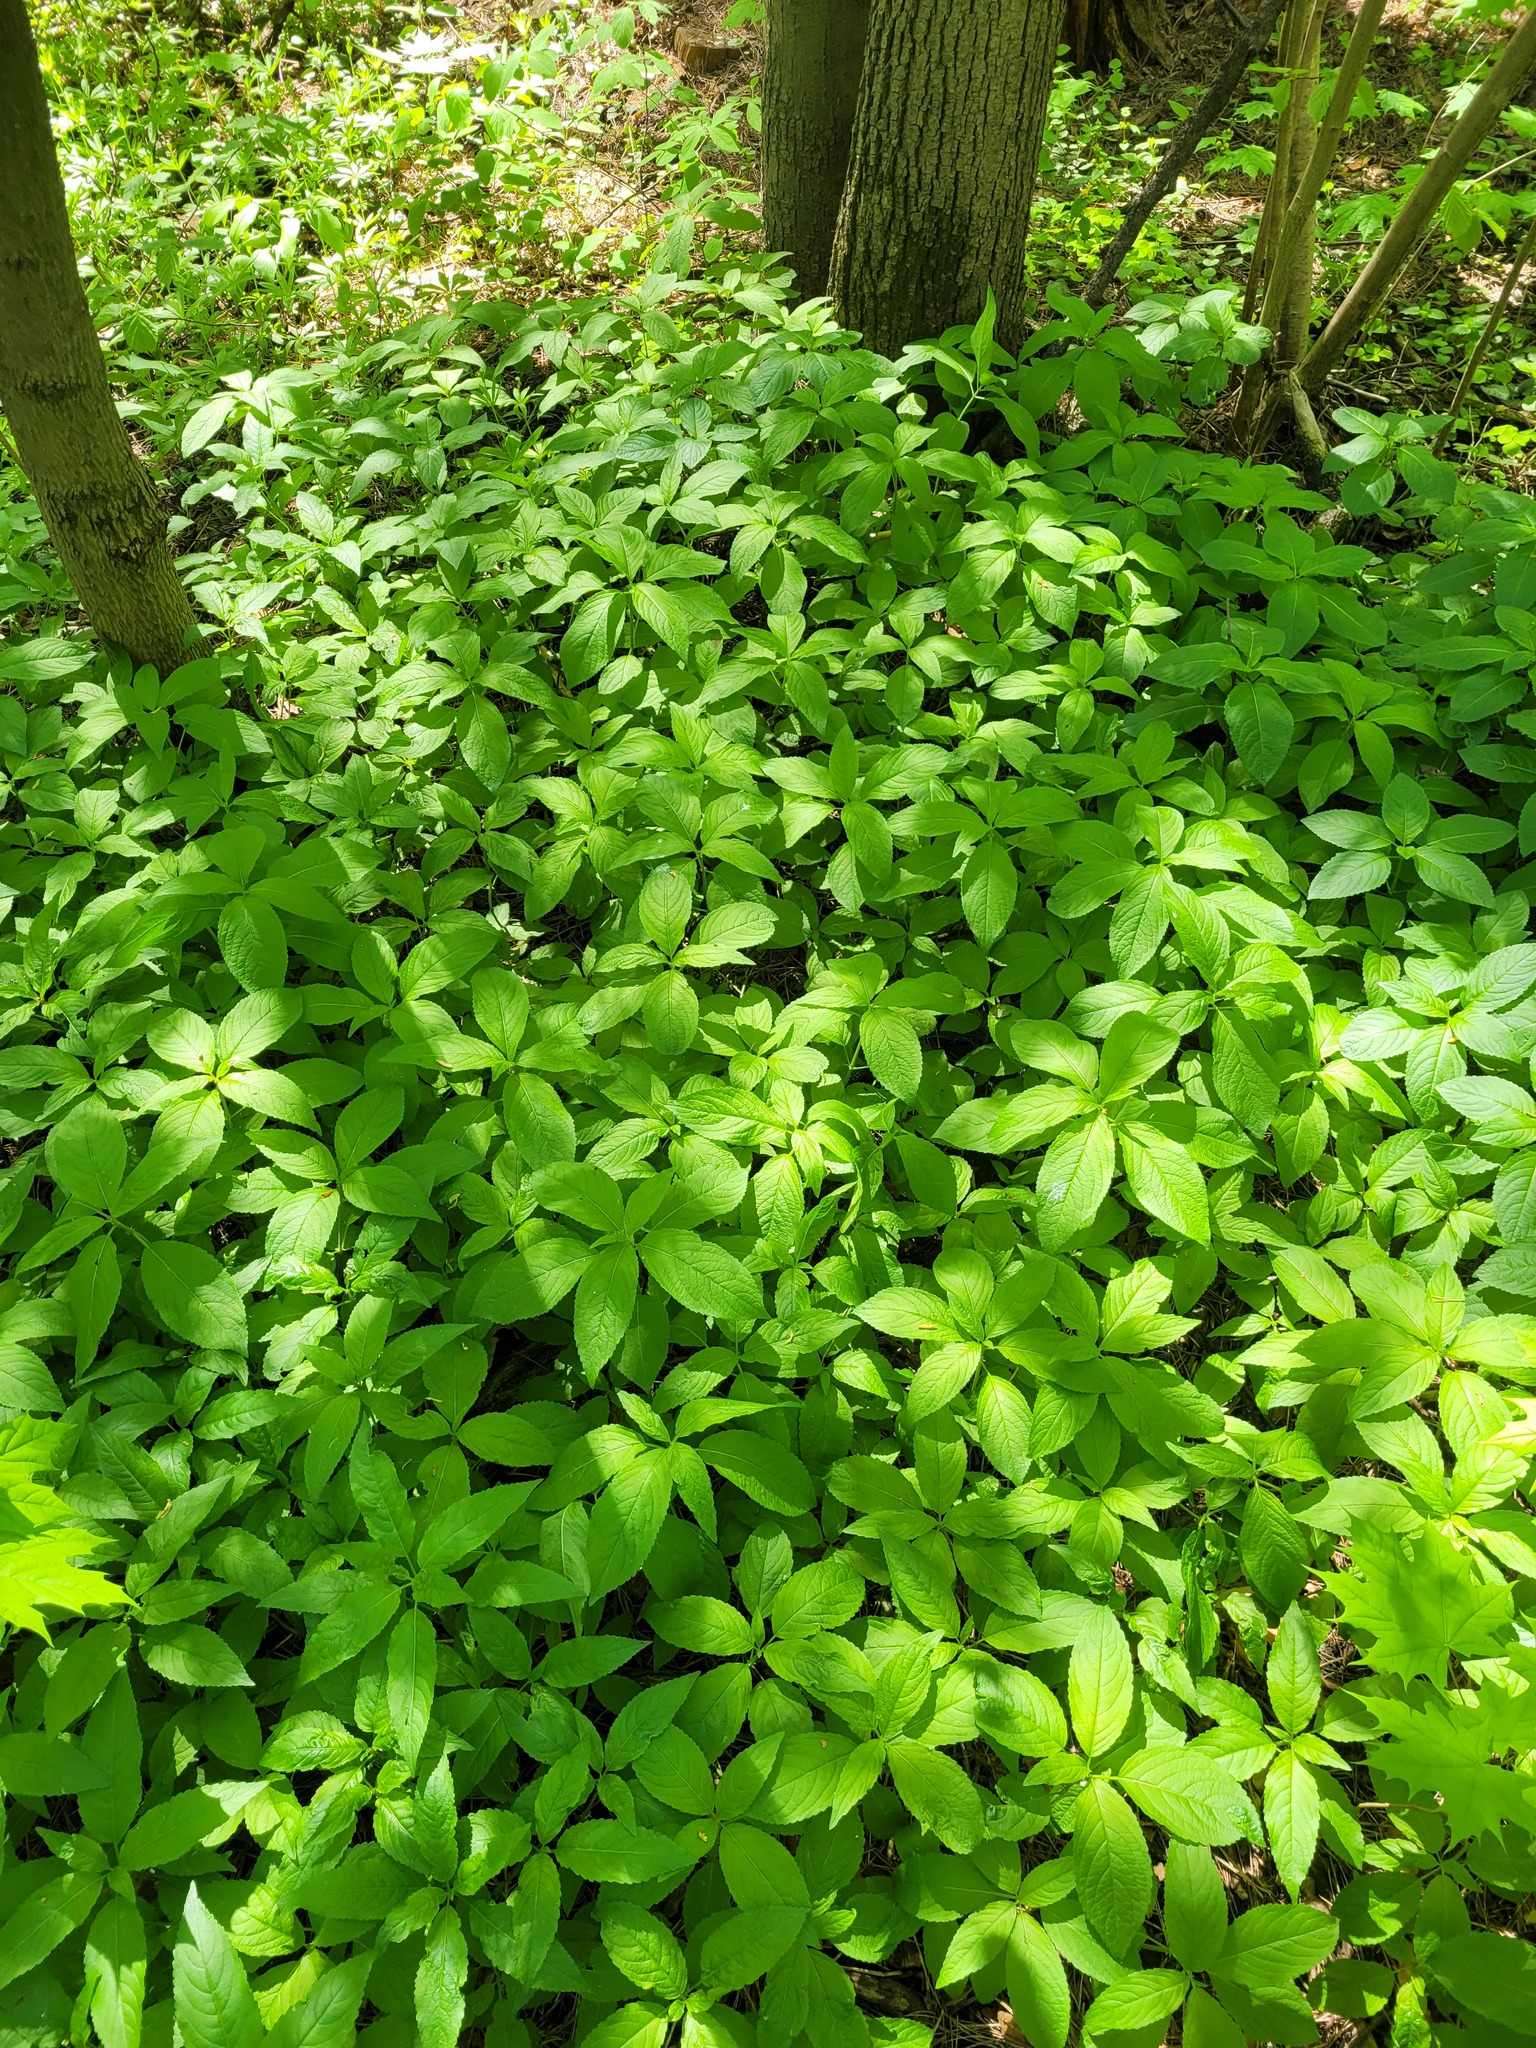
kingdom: Plantae
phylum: Tracheophyta
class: Magnoliopsida
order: Malpighiales
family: Euphorbiaceae
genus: Mercurialis
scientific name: Mercurialis perennis
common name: Dog mercury
